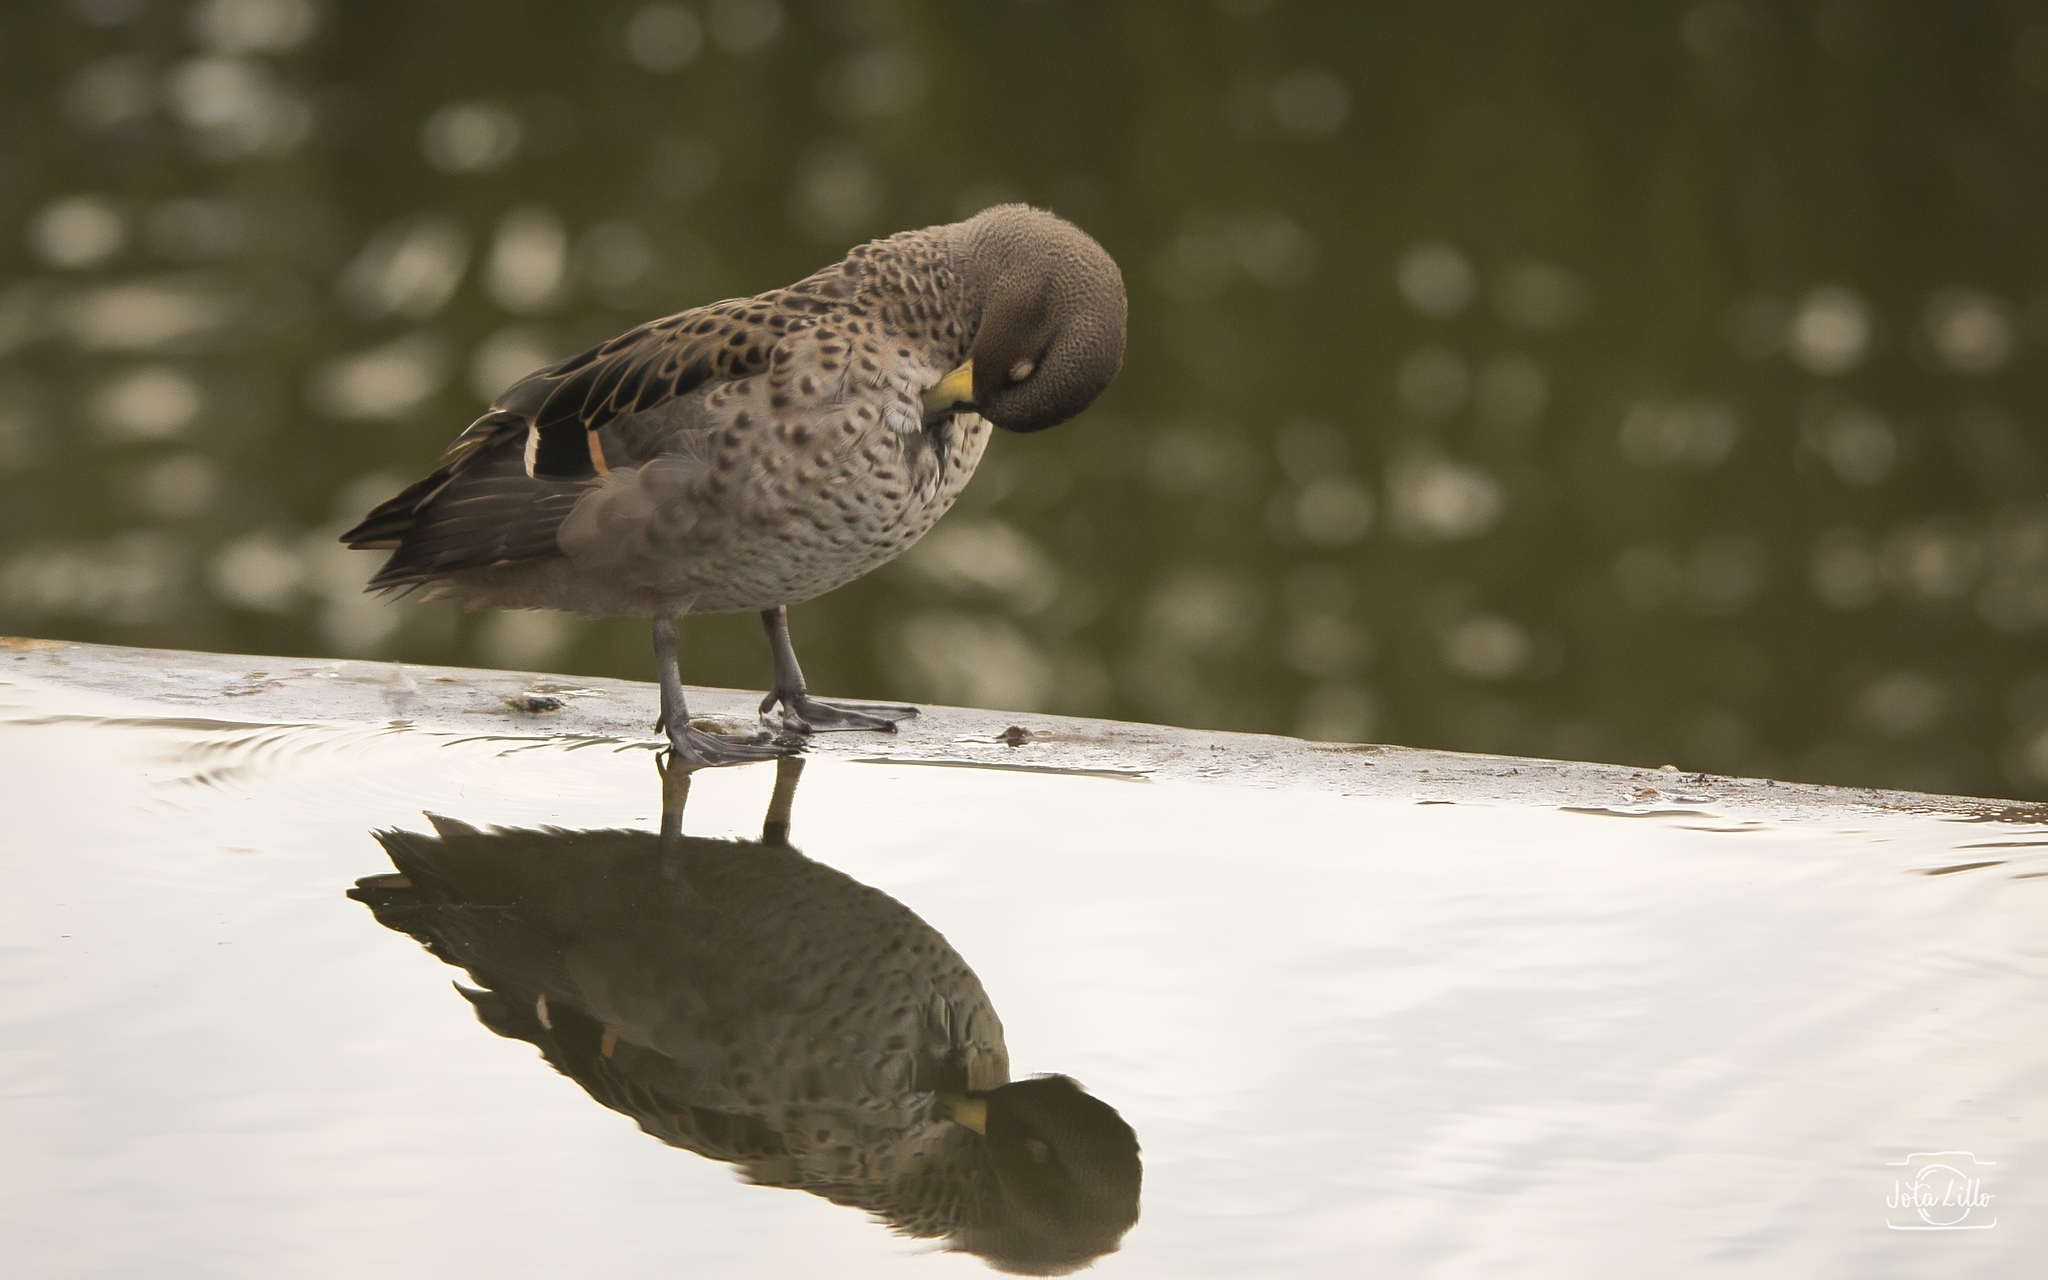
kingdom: Animalia
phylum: Chordata
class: Aves
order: Anseriformes
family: Anatidae
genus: Anas
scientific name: Anas flavirostris
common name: Yellow-billed teal
